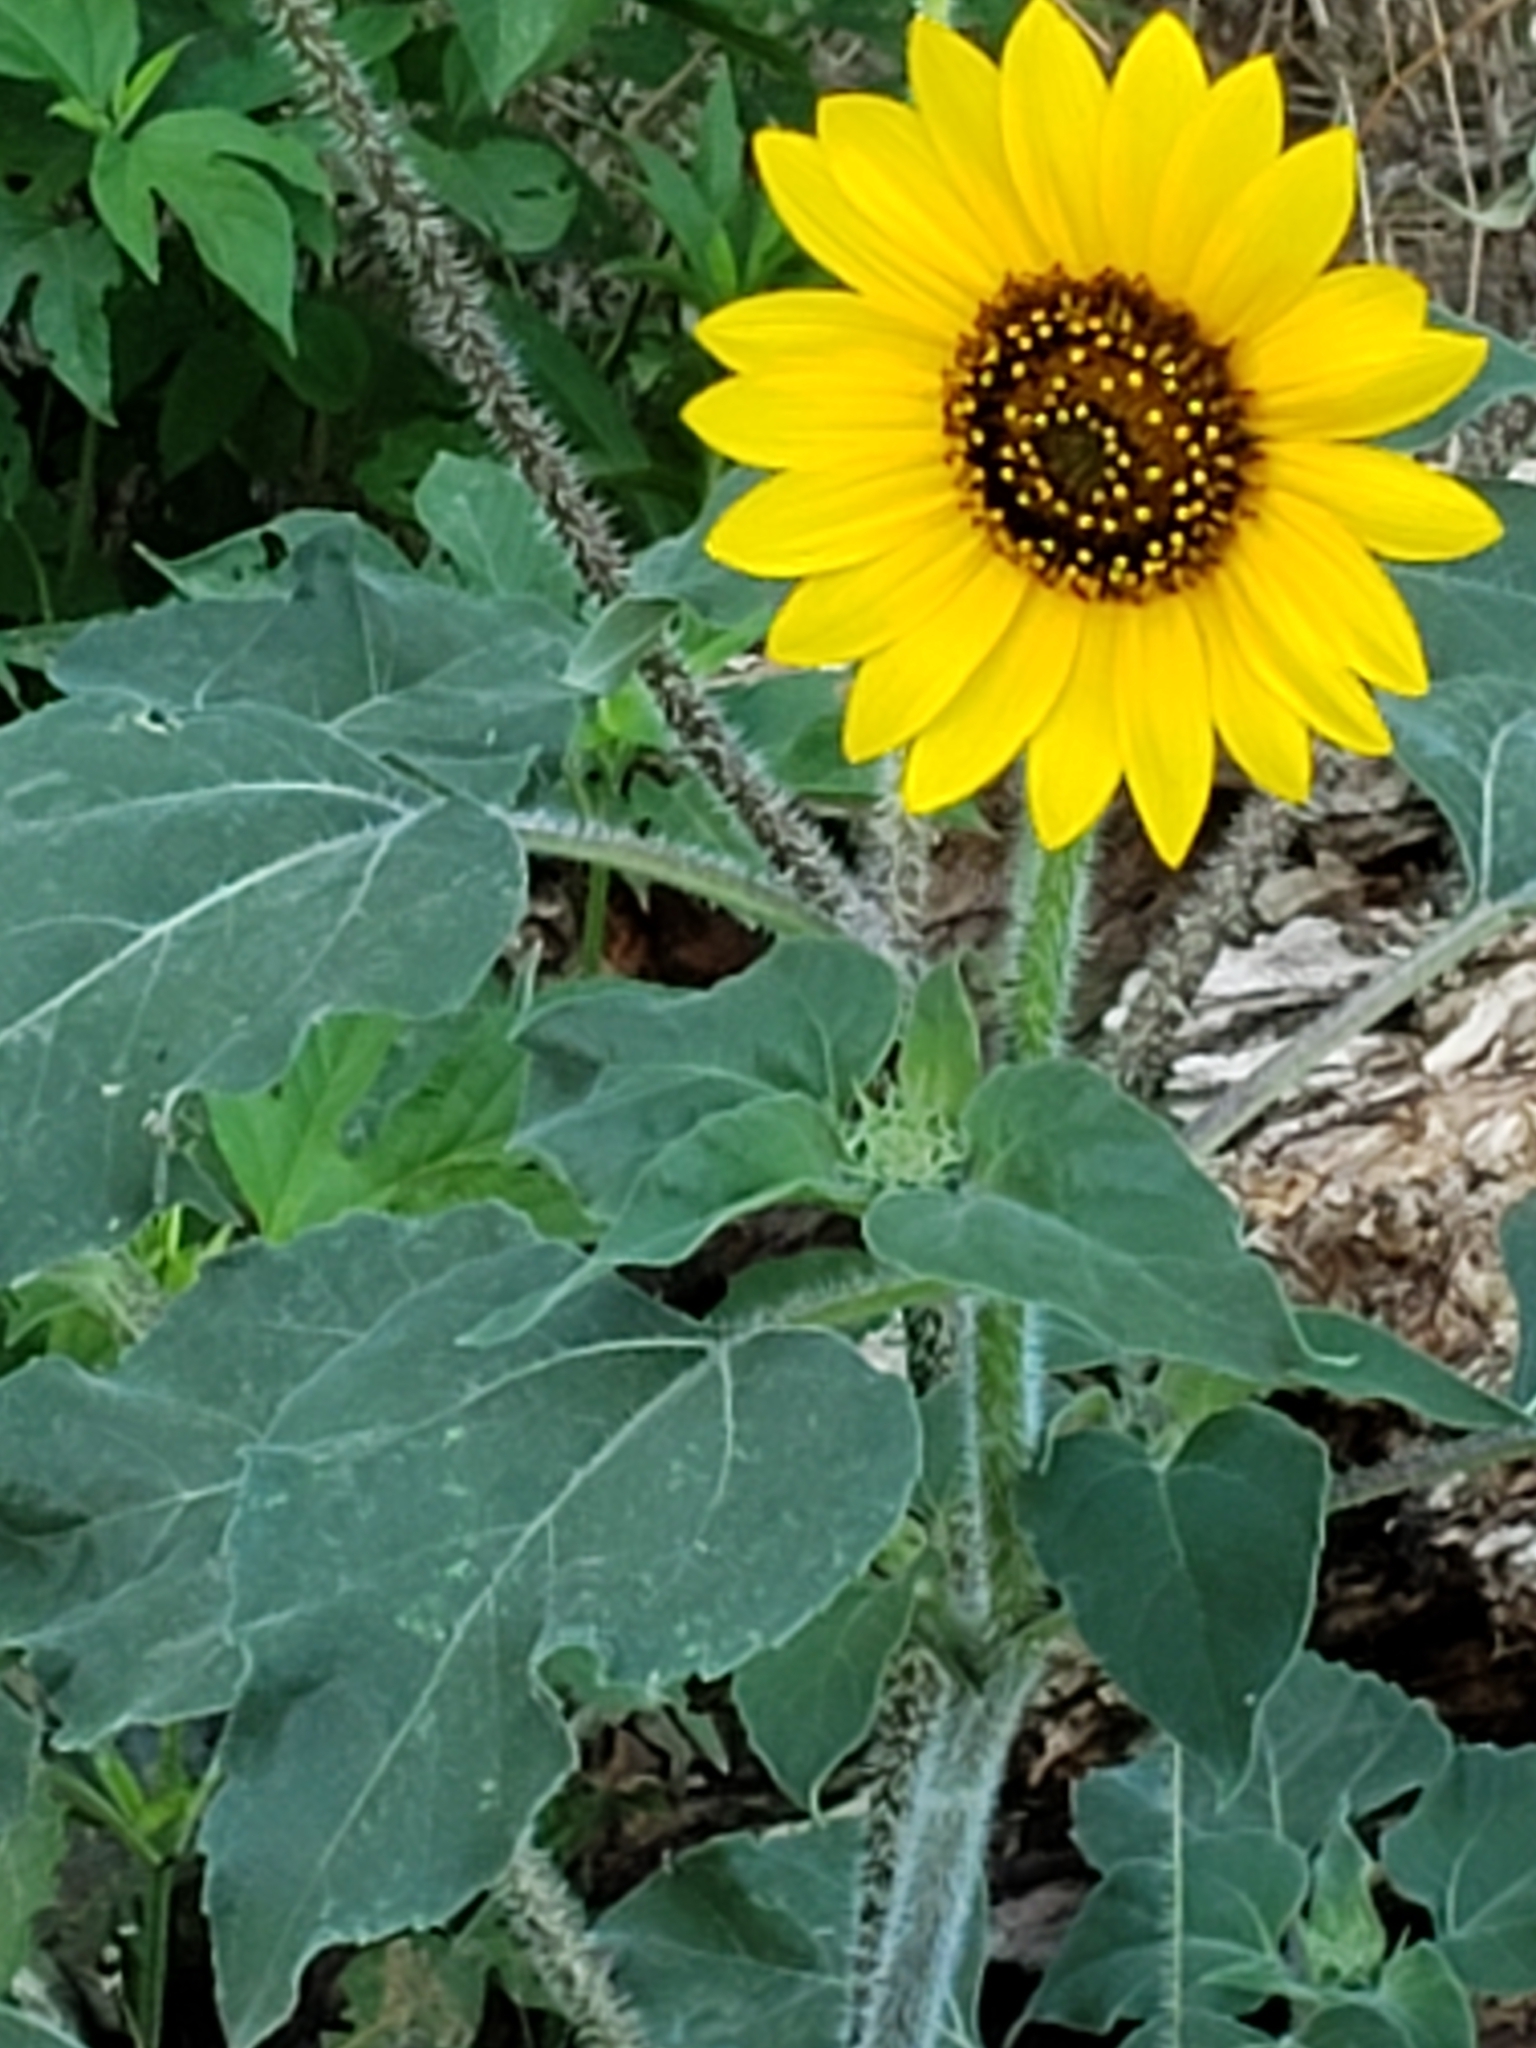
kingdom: Plantae
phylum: Tracheophyta
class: Magnoliopsida
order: Asterales
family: Asteraceae
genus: Helianthus
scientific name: Helianthus annuus
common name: Sunflower
